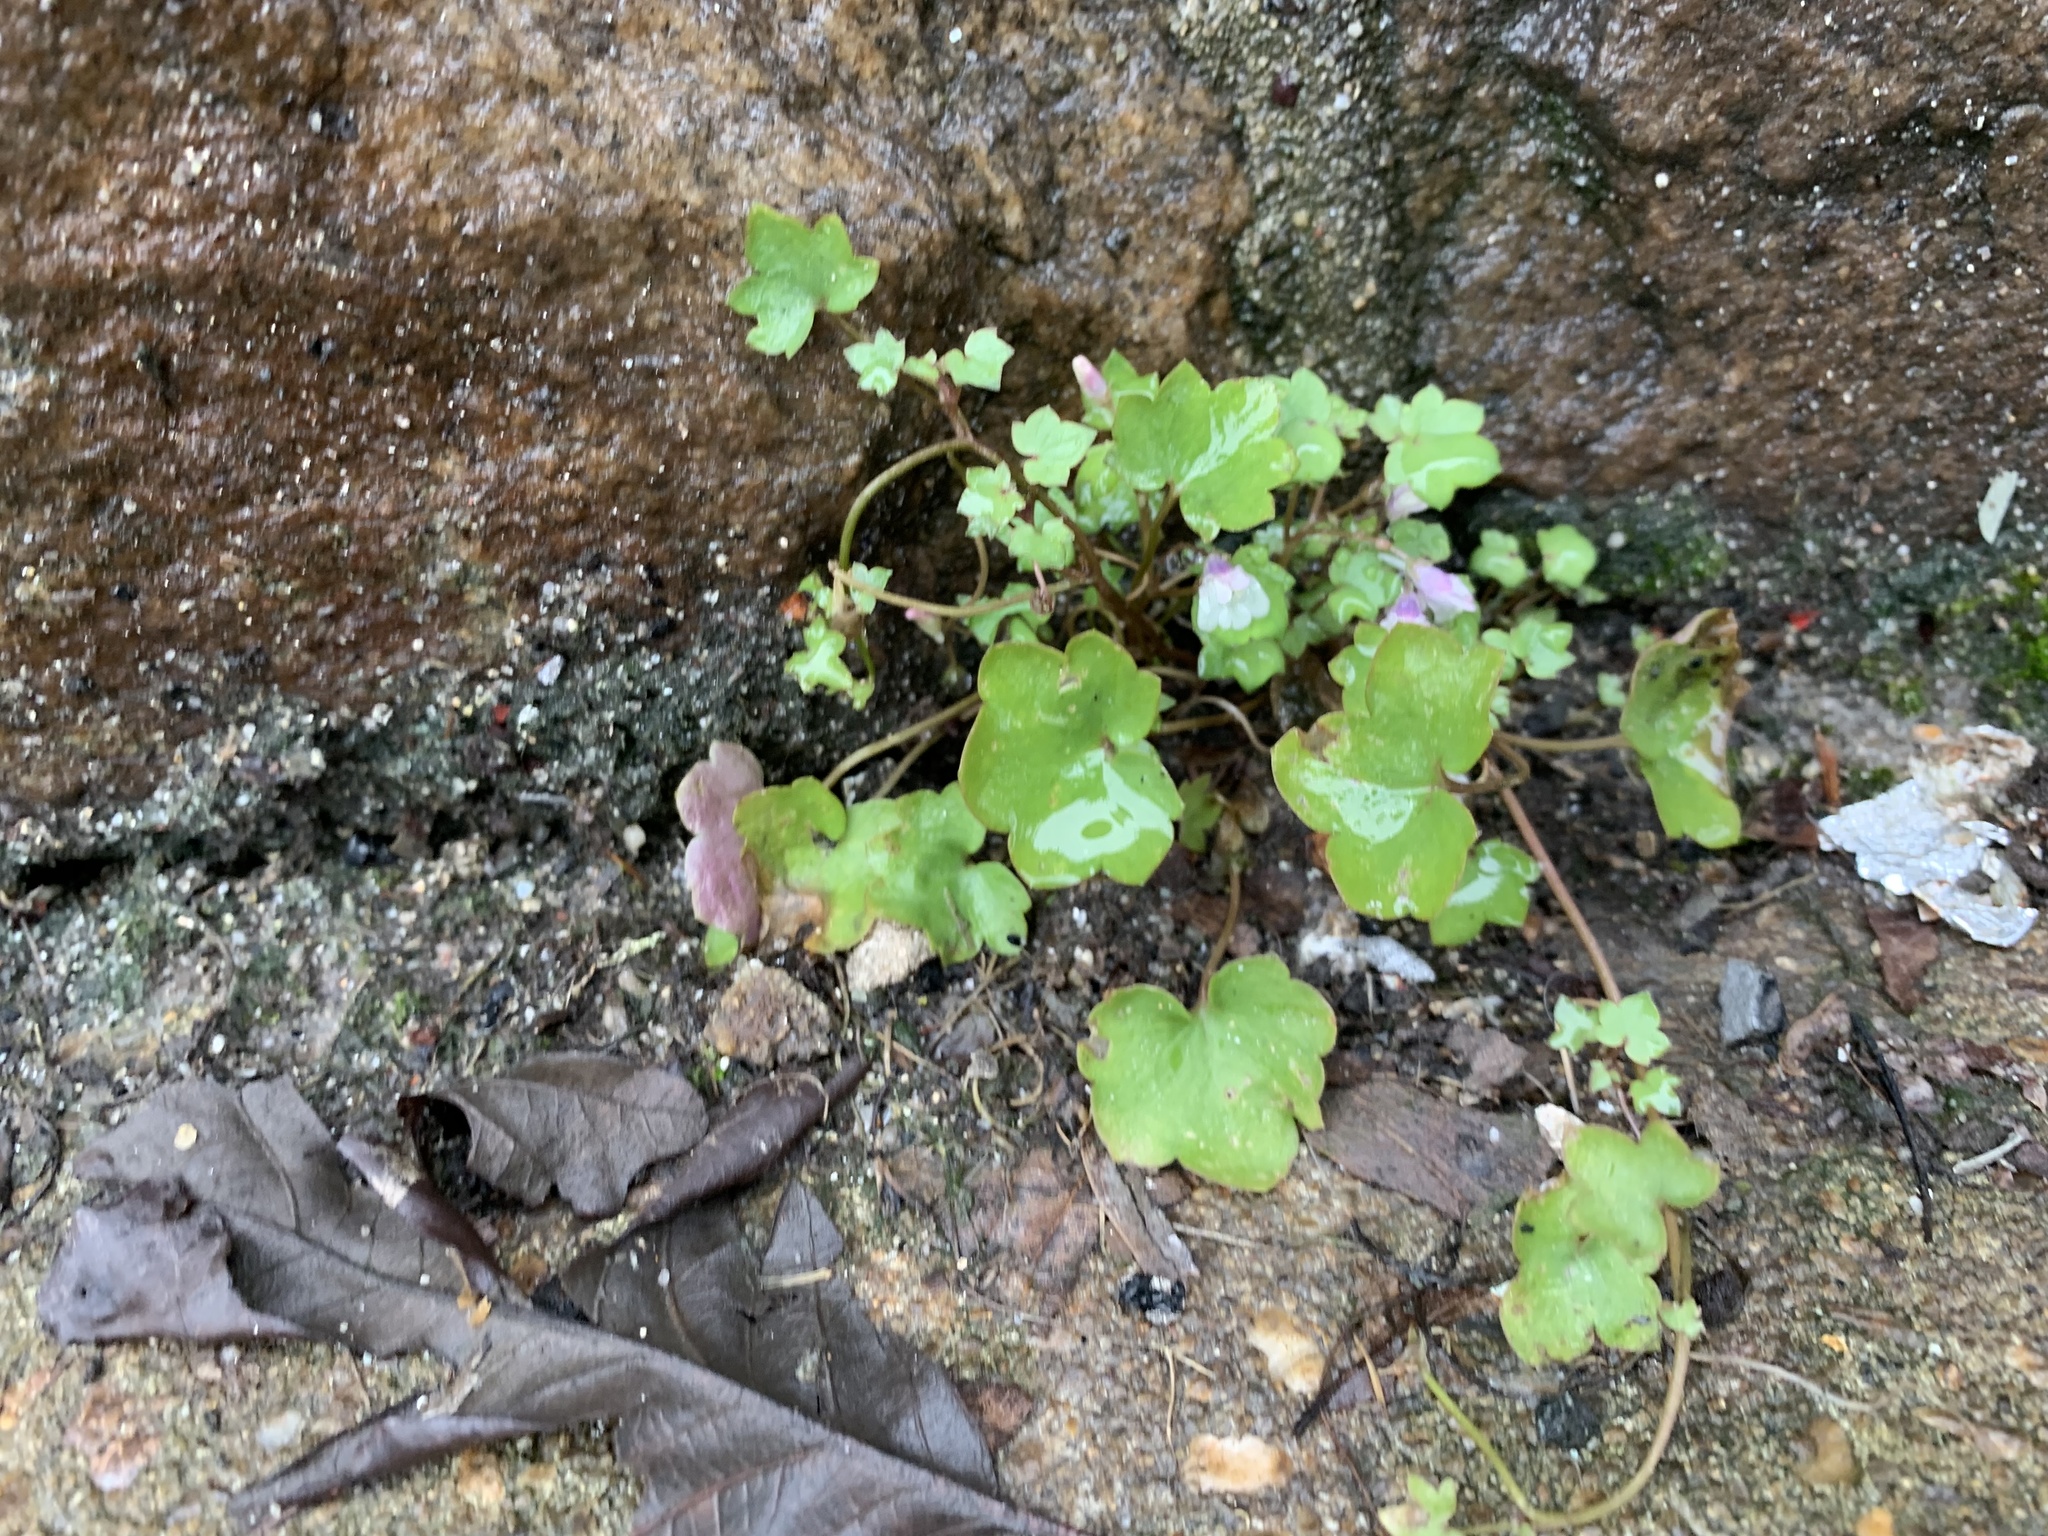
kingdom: Plantae
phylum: Tracheophyta
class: Magnoliopsida
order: Lamiales
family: Plantaginaceae
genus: Cymbalaria
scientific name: Cymbalaria muralis
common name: Ivy-leaved toadflax
